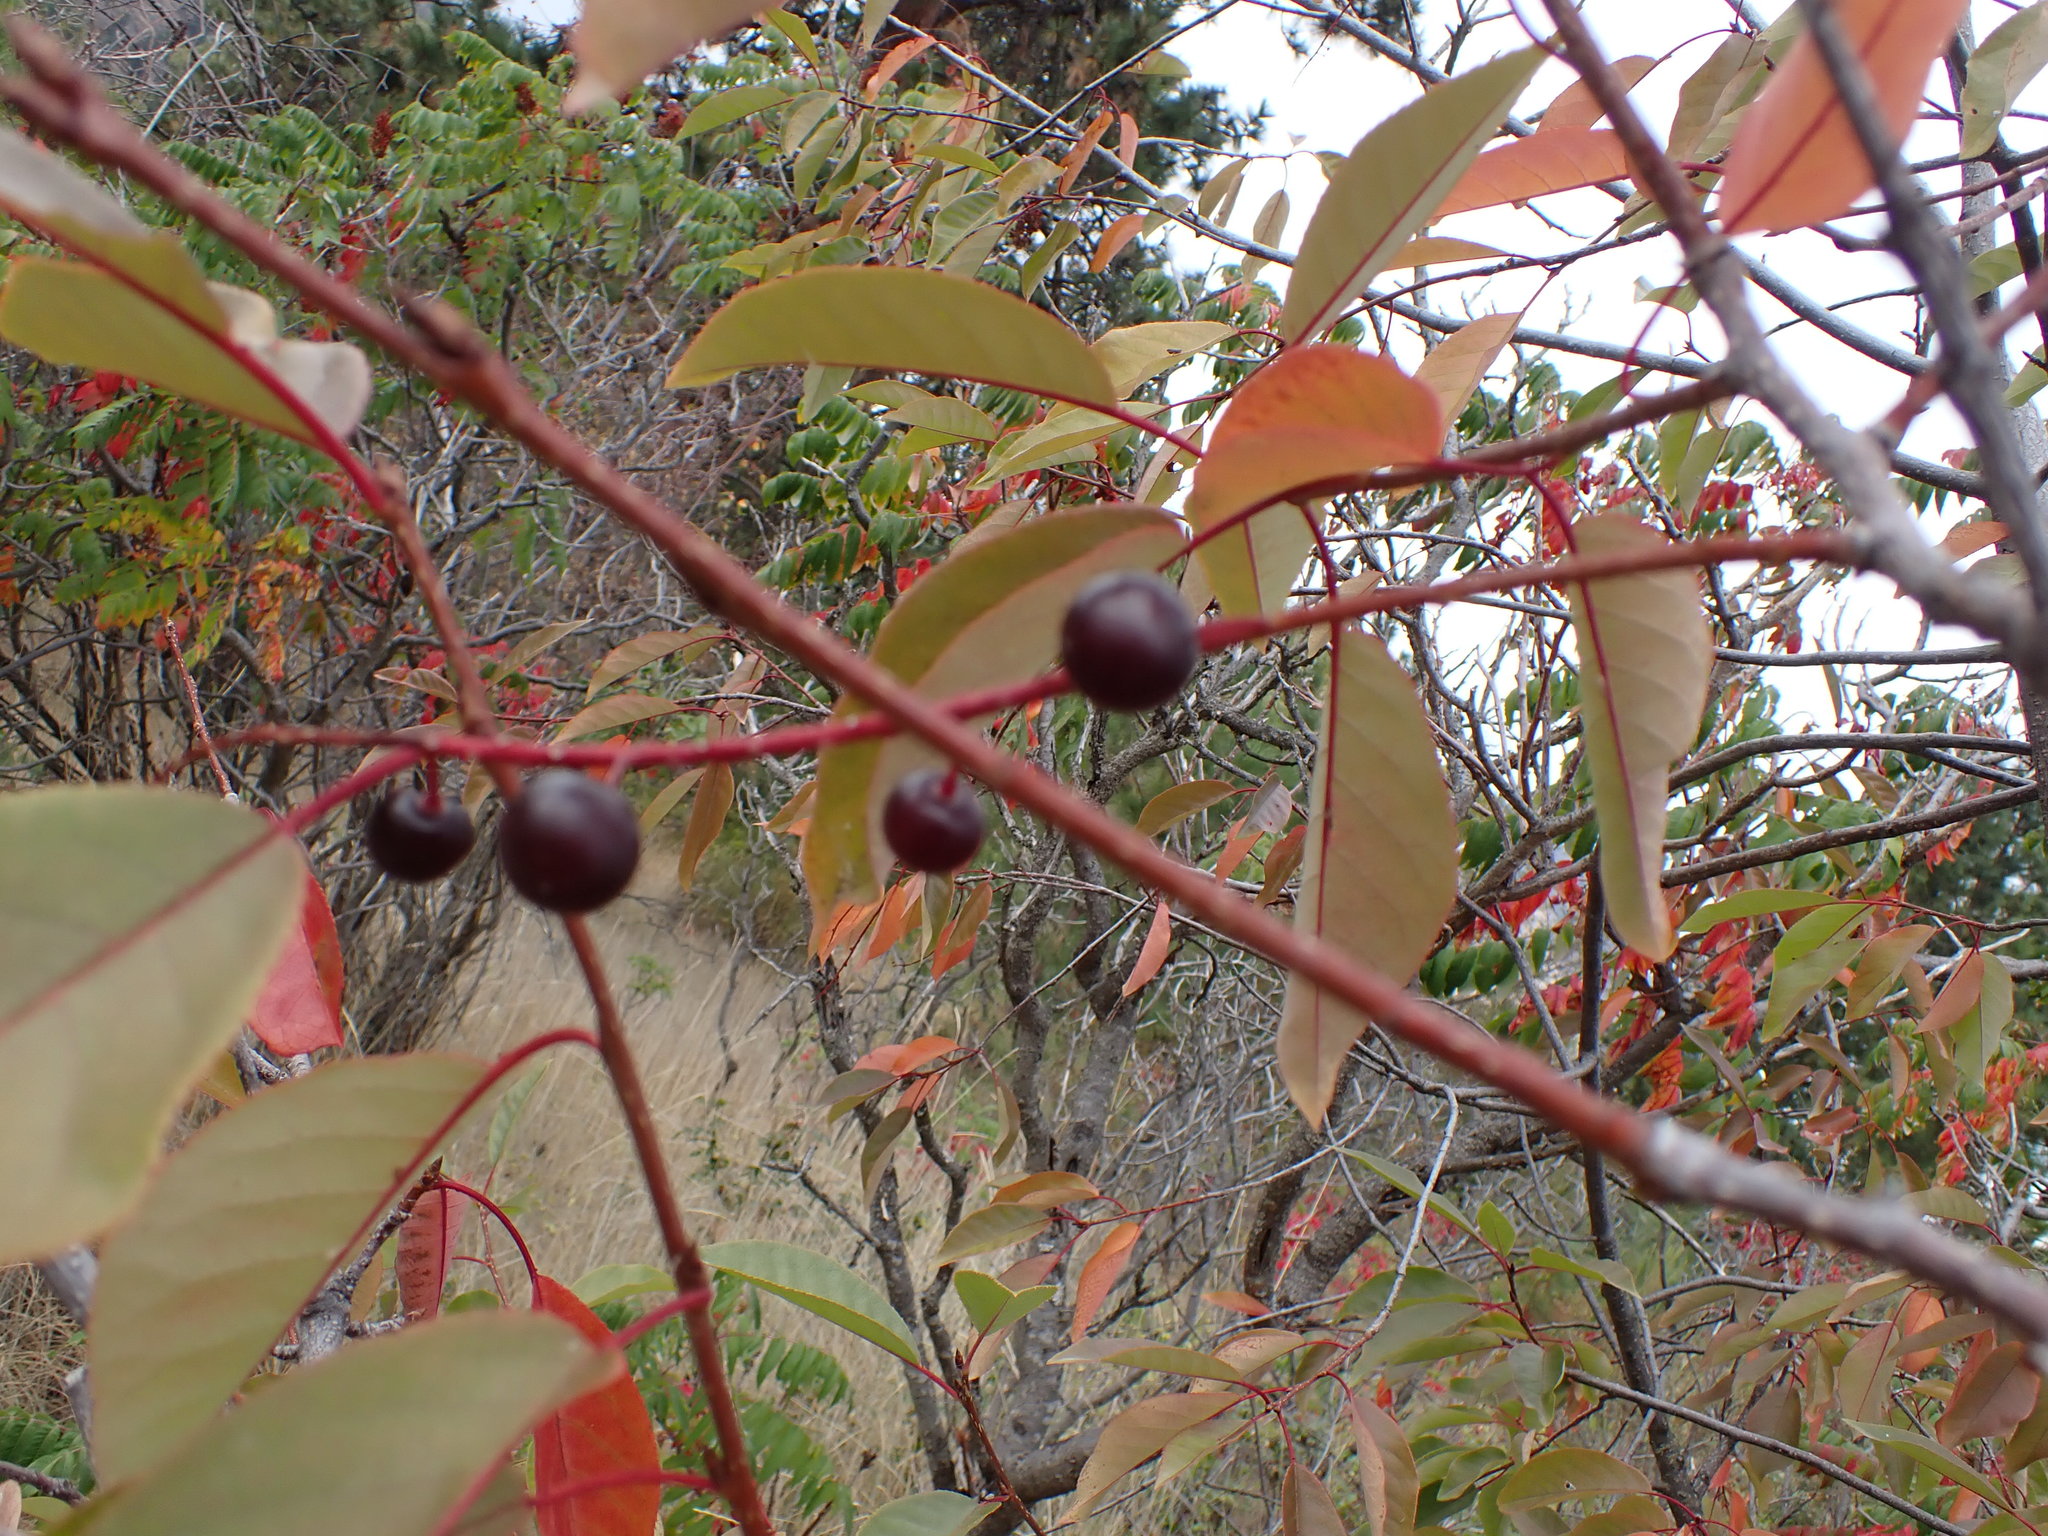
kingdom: Plantae
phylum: Tracheophyta
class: Magnoliopsida
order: Rosales
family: Rosaceae
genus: Prunus
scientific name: Prunus virginiana
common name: Chokecherry
